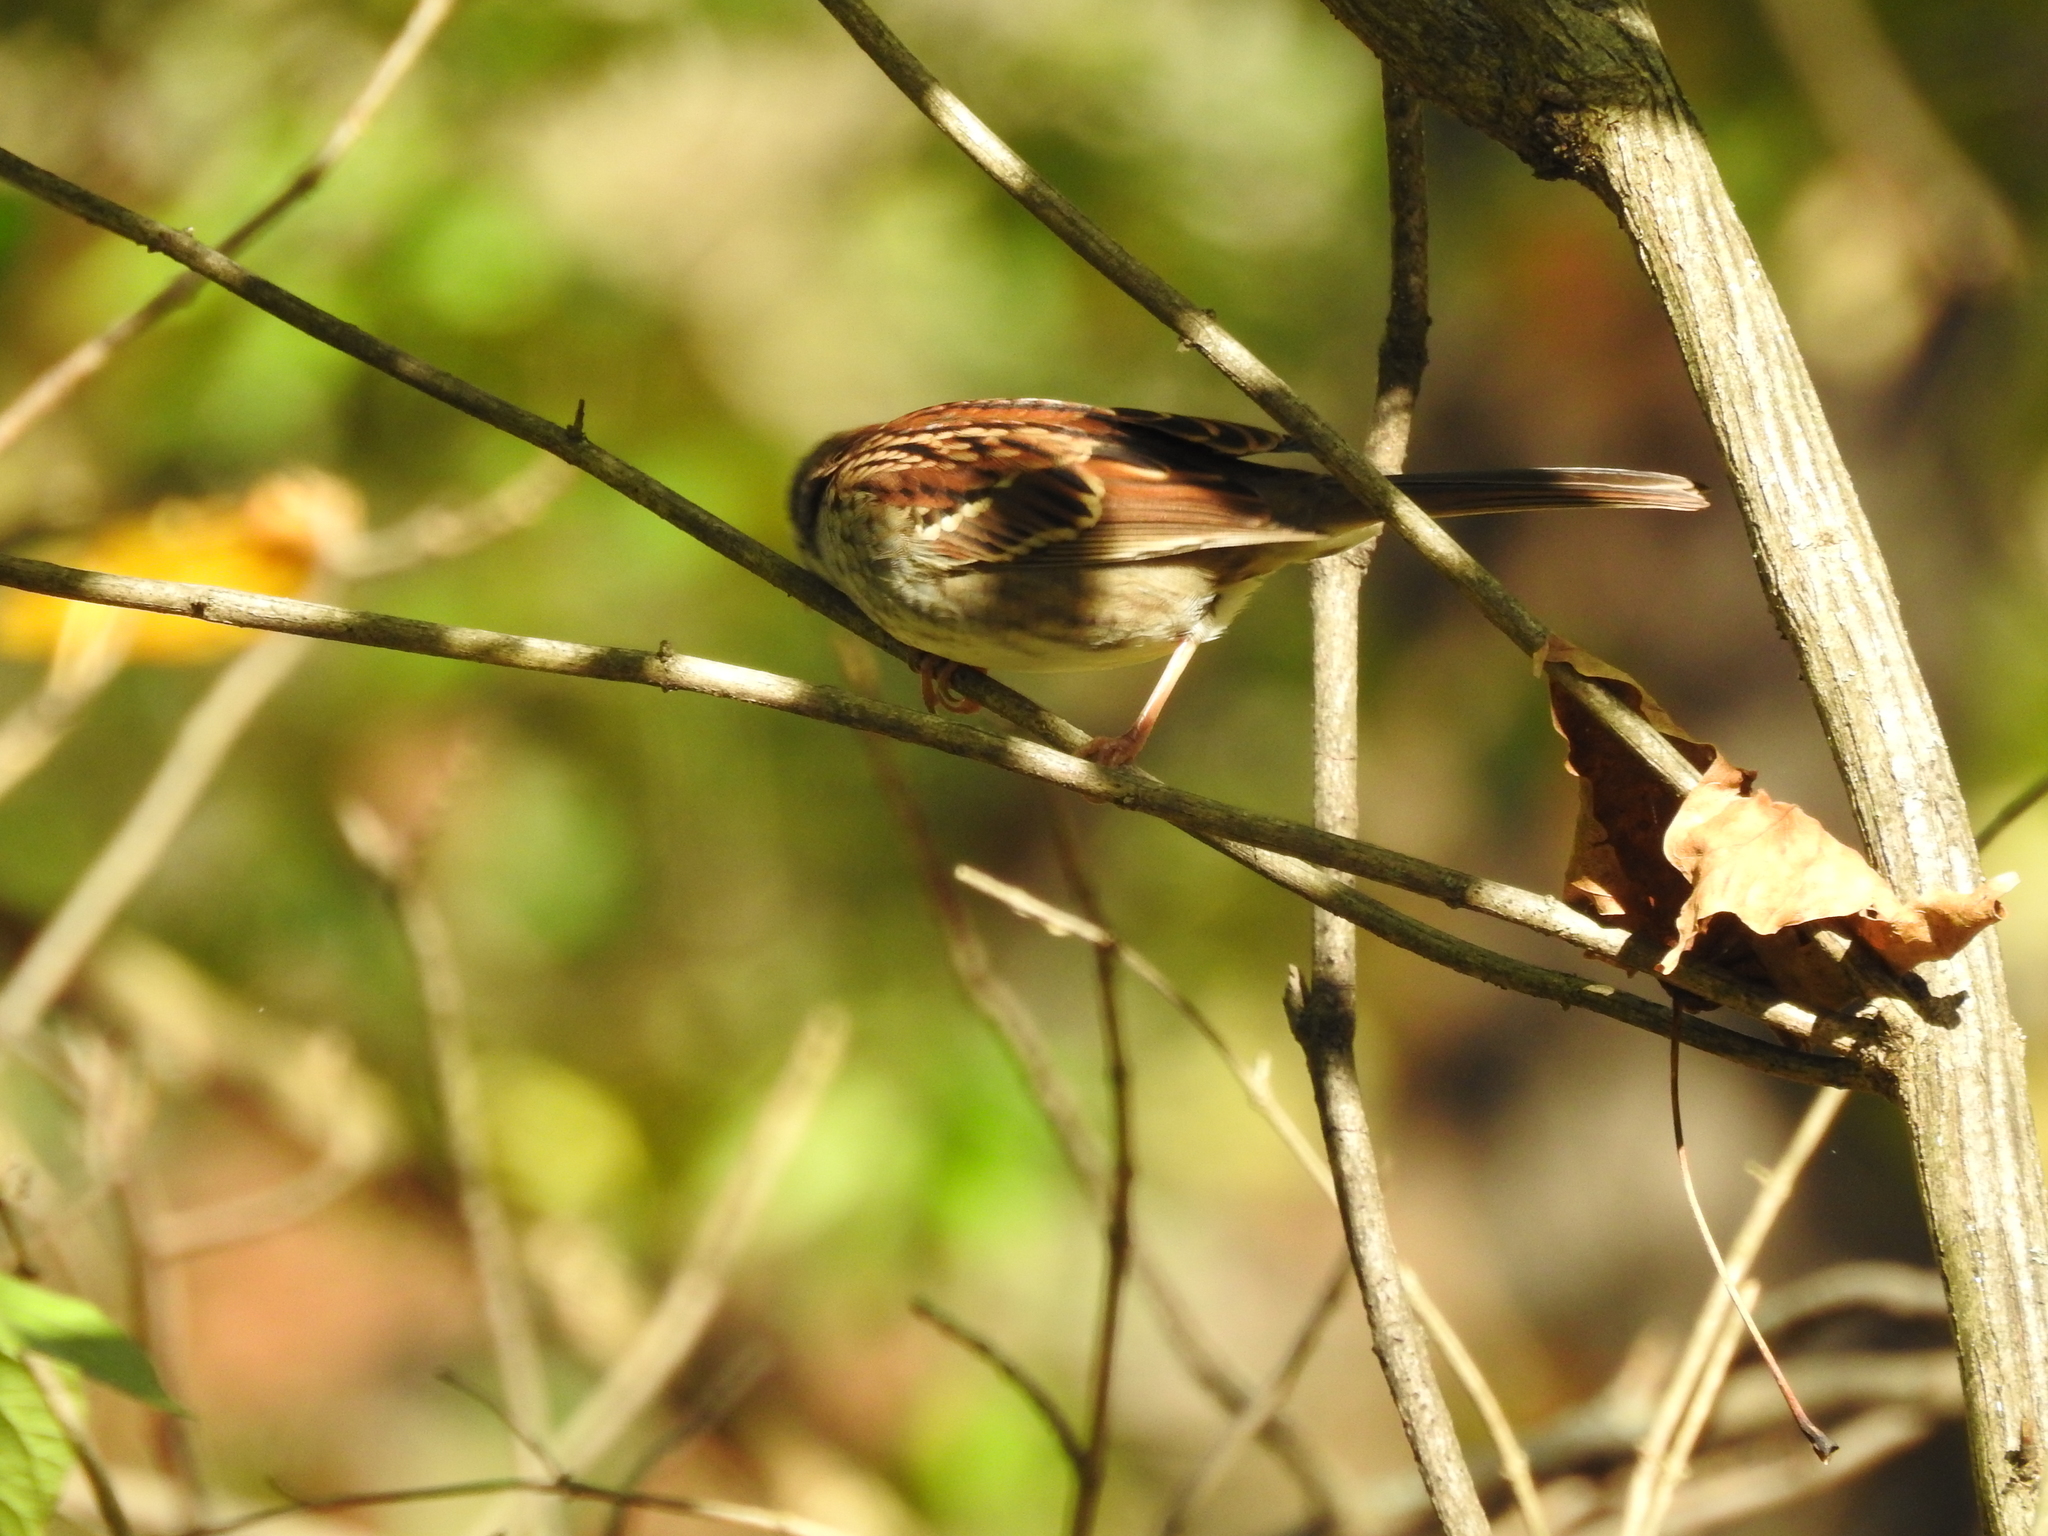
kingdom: Animalia
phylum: Chordata
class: Aves
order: Passeriformes
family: Passerellidae
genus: Zonotrichia
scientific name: Zonotrichia albicollis
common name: White-throated sparrow
